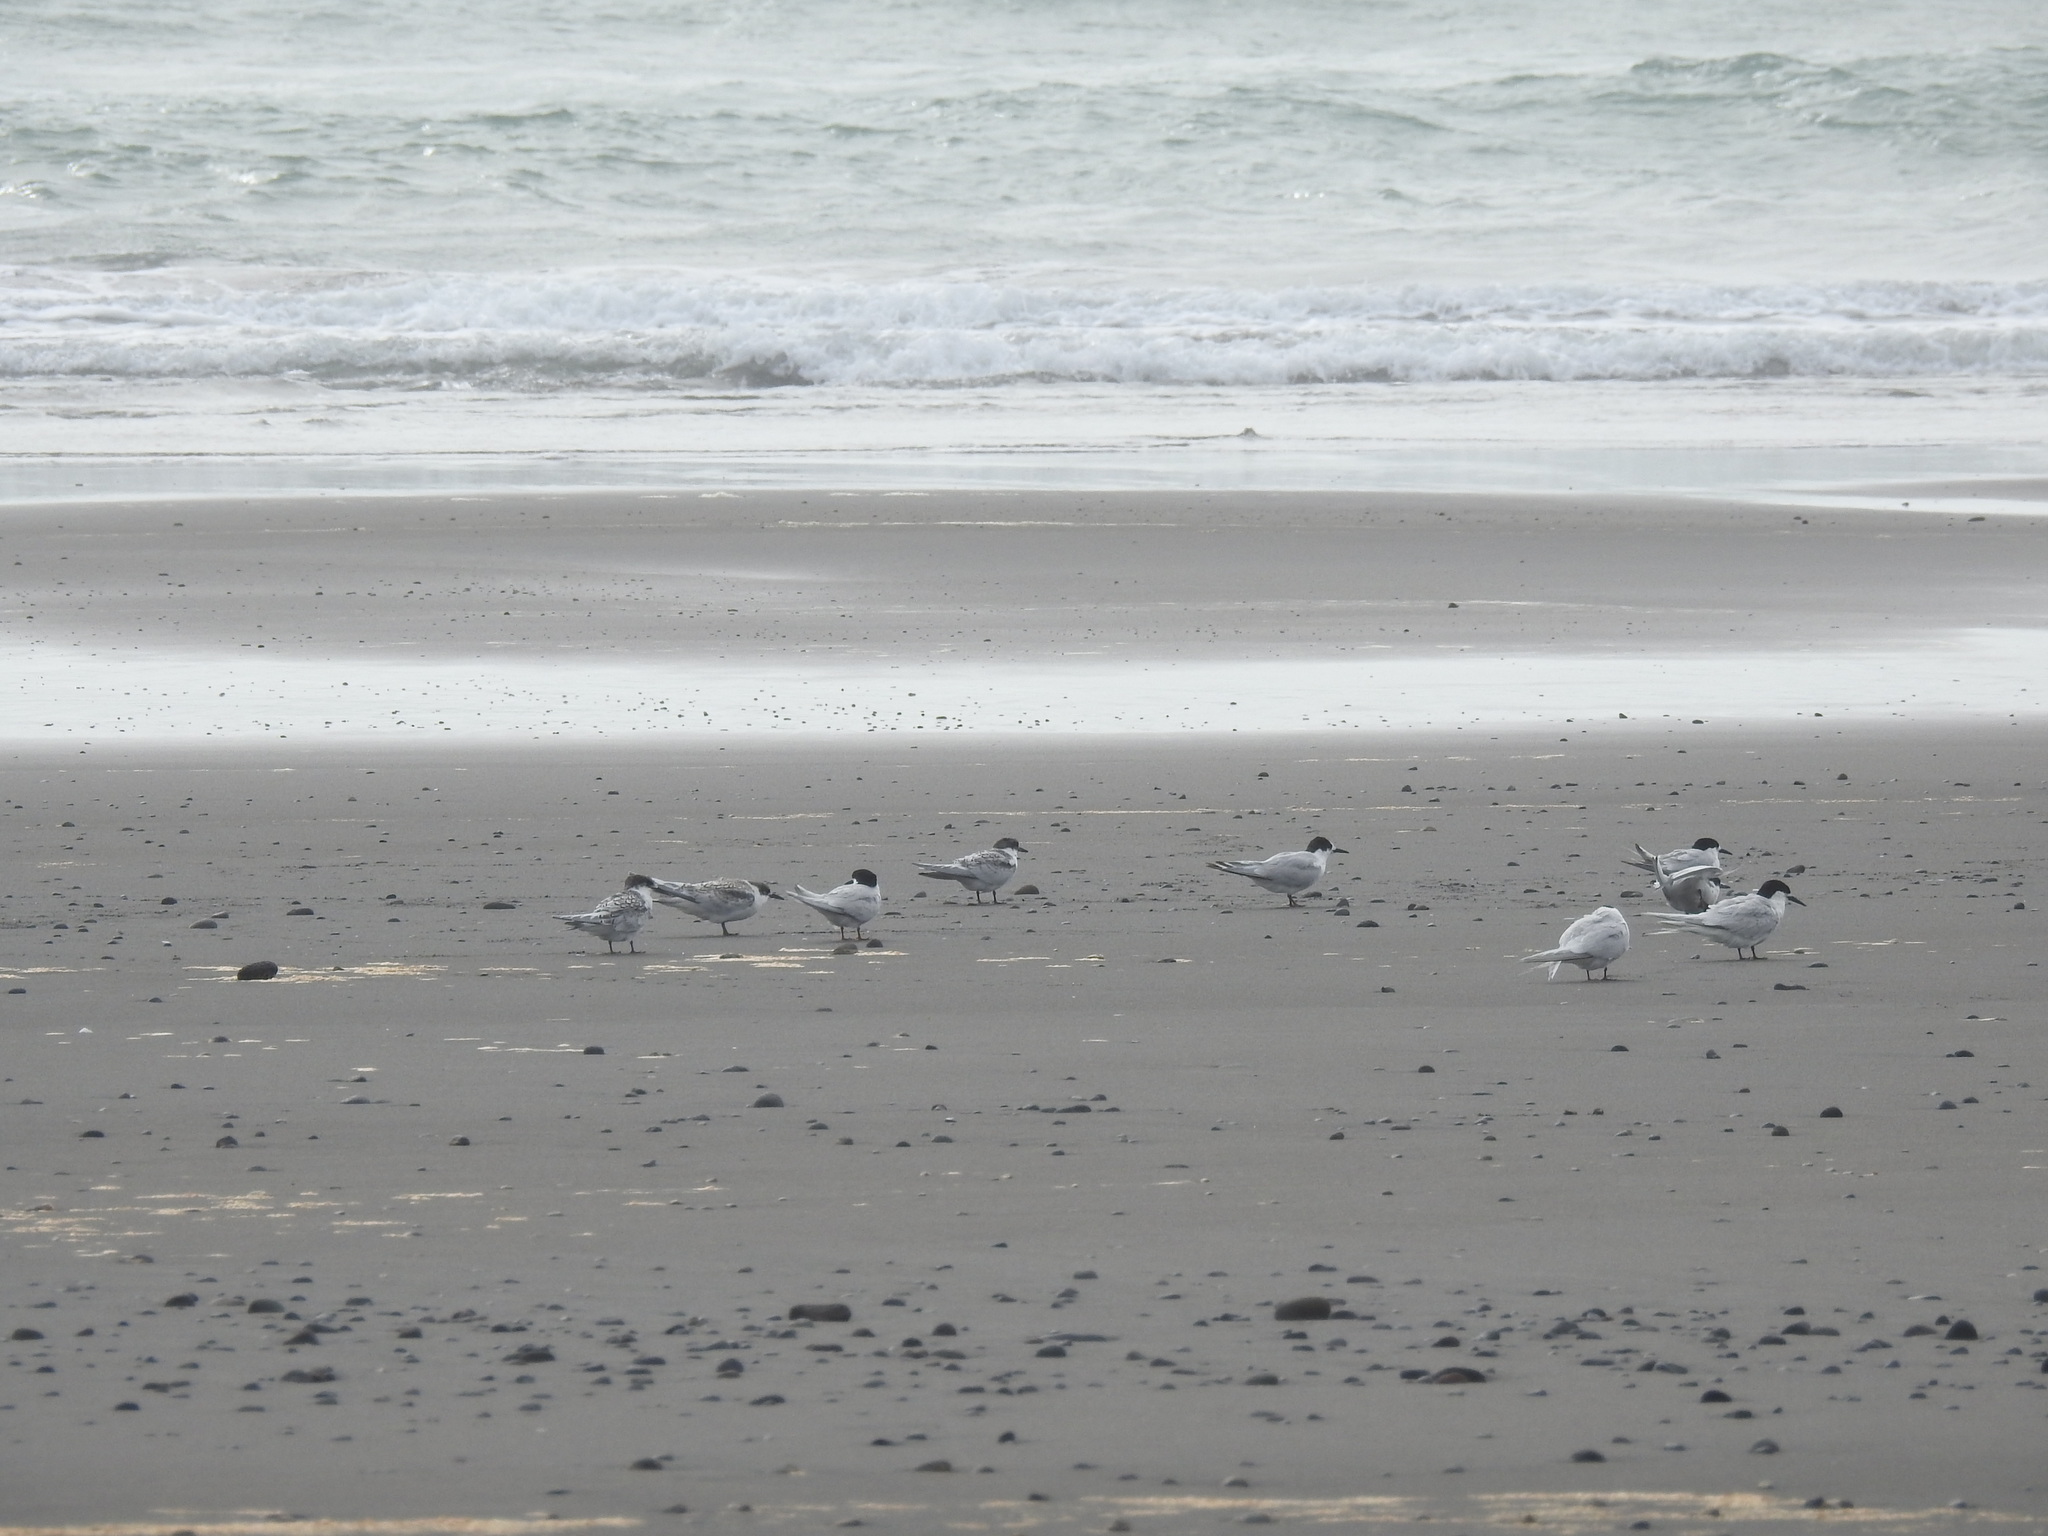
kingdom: Animalia
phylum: Chordata
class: Aves
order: Charadriiformes
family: Laridae
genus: Sterna
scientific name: Sterna striata
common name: White-fronted tern
